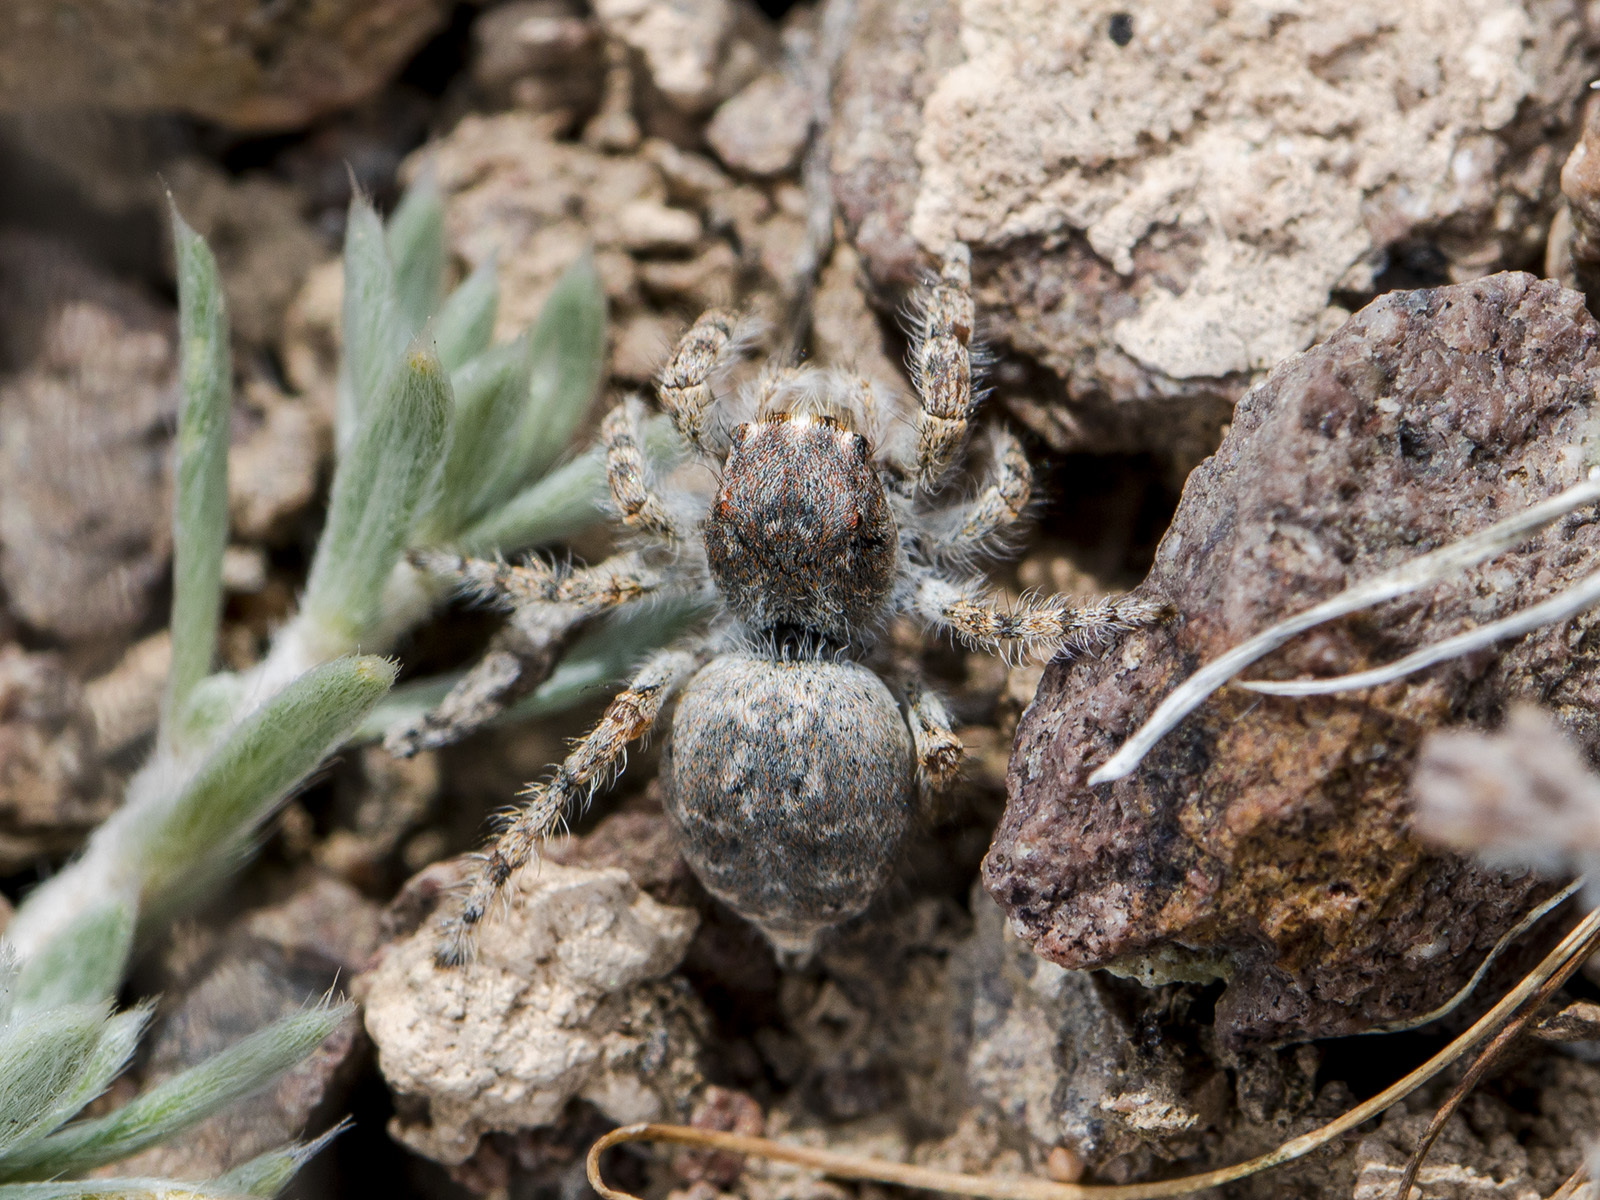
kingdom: Animalia
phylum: Arthropoda
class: Arachnida
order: Araneae
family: Salticidae
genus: Yllenus
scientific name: Yllenus charynensis
